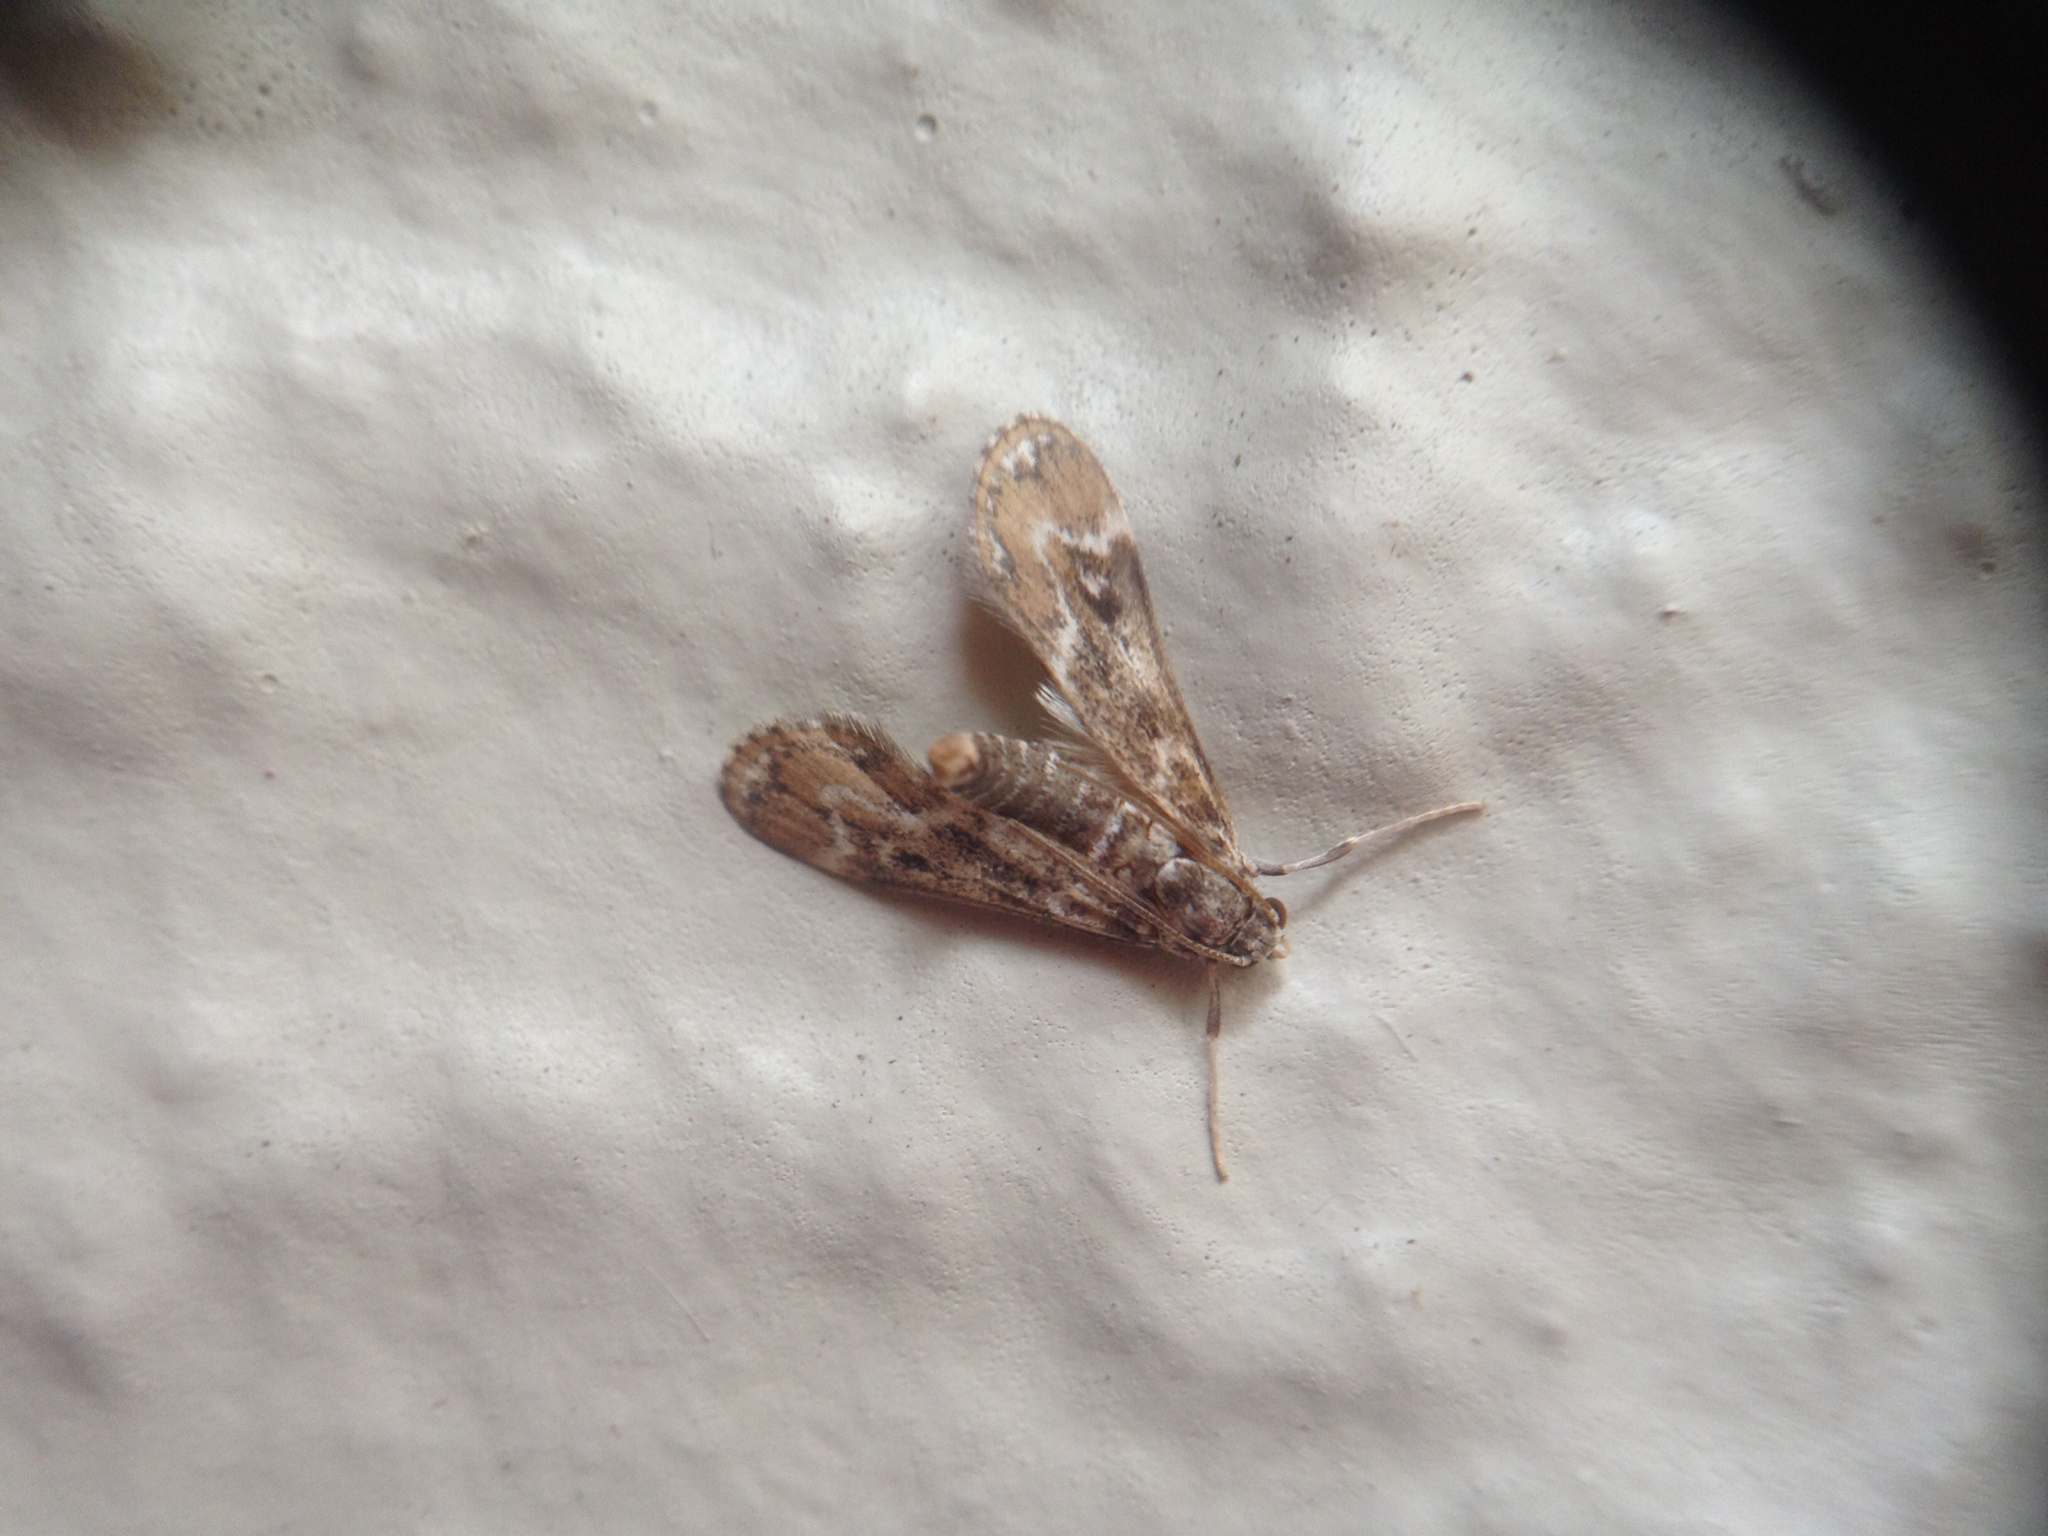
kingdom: Animalia
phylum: Arthropoda
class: Insecta
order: Lepidoptera
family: Crambidae
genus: Hygraula
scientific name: Hygraula nitens
